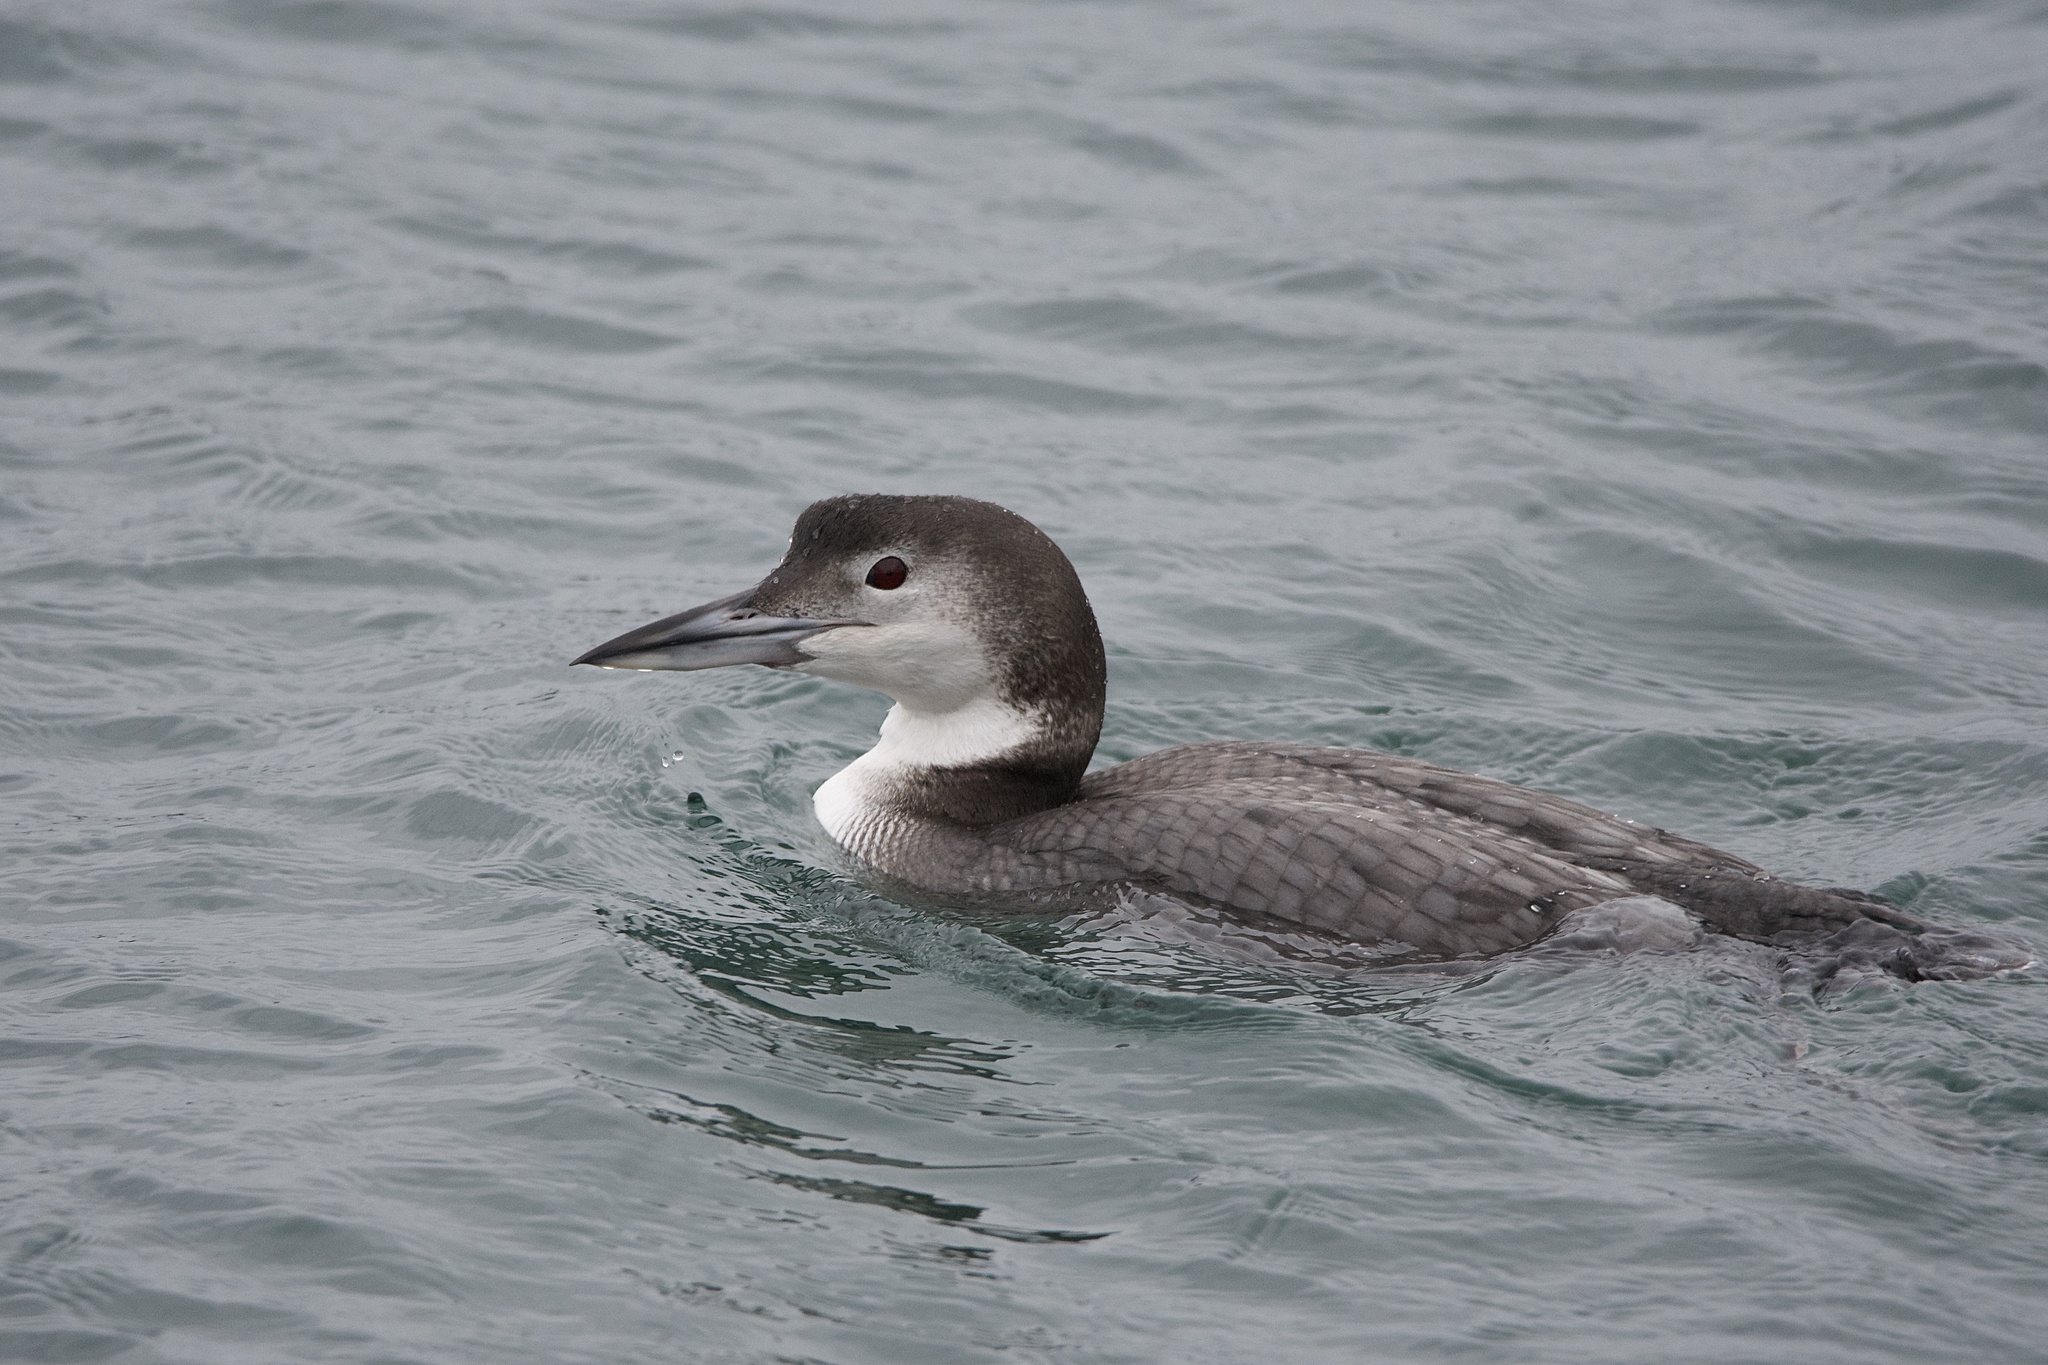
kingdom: Animalia
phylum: Chordata
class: Aves
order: Gaviiformes
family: Gaviidae
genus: Gavia
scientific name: Gavia immer
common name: Common loon
